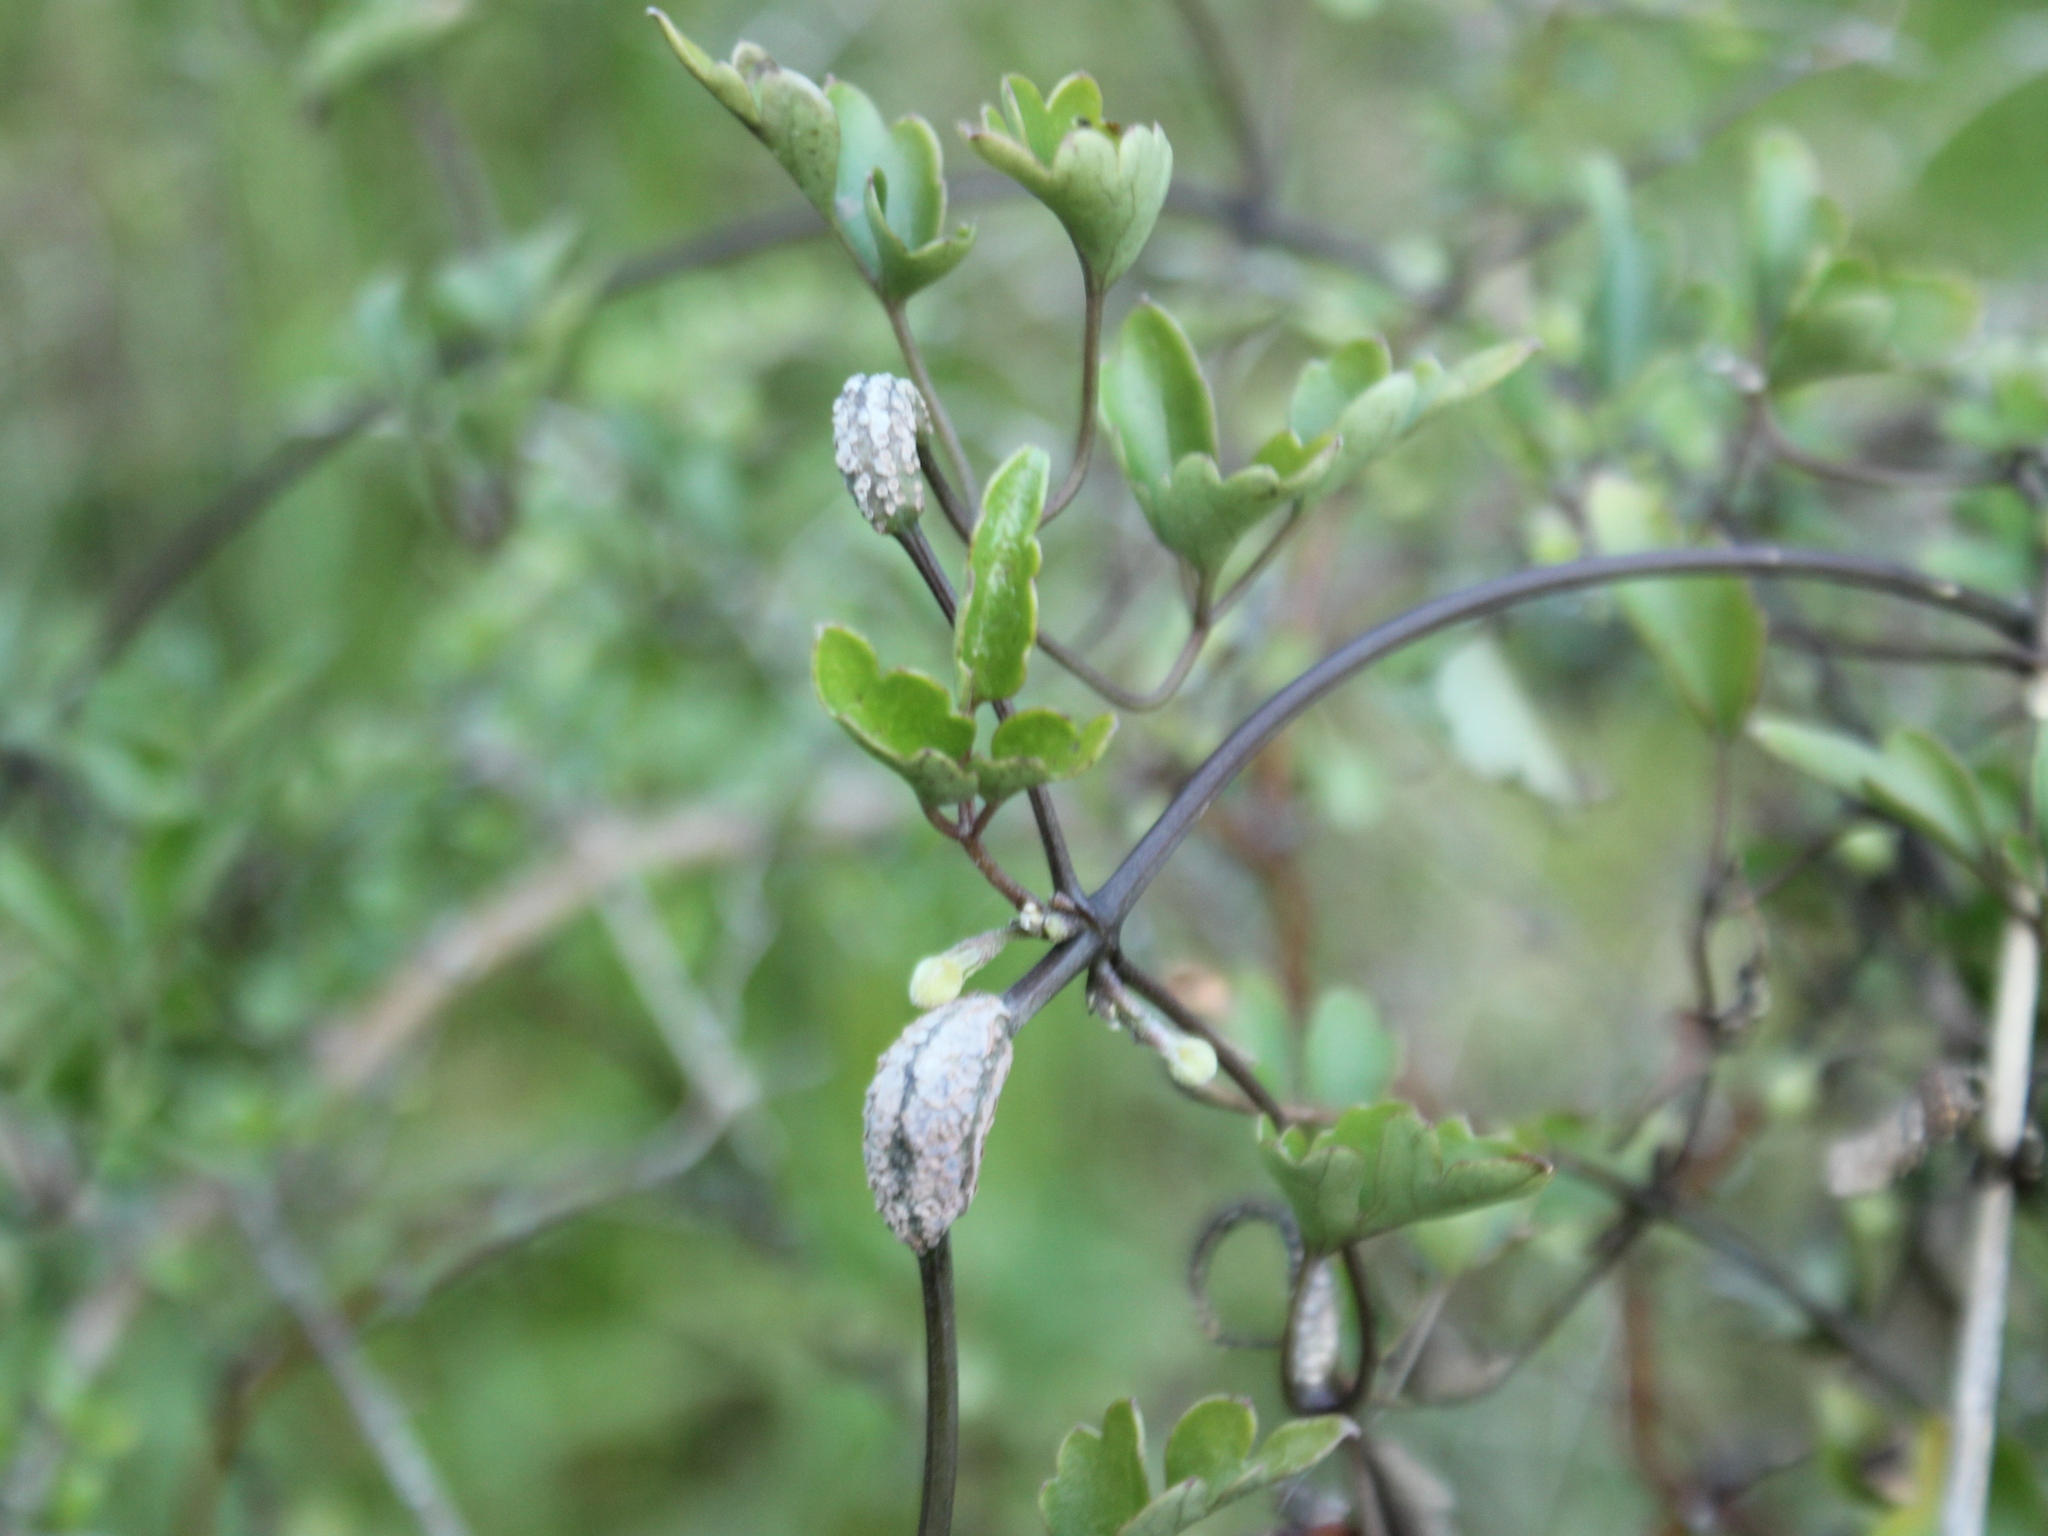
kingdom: Fungi
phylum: Basidiomycota
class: Pucciniomycetes
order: Pucciniales
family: Pucciniaceae
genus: Puccinia
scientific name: Puccinia otagensis
